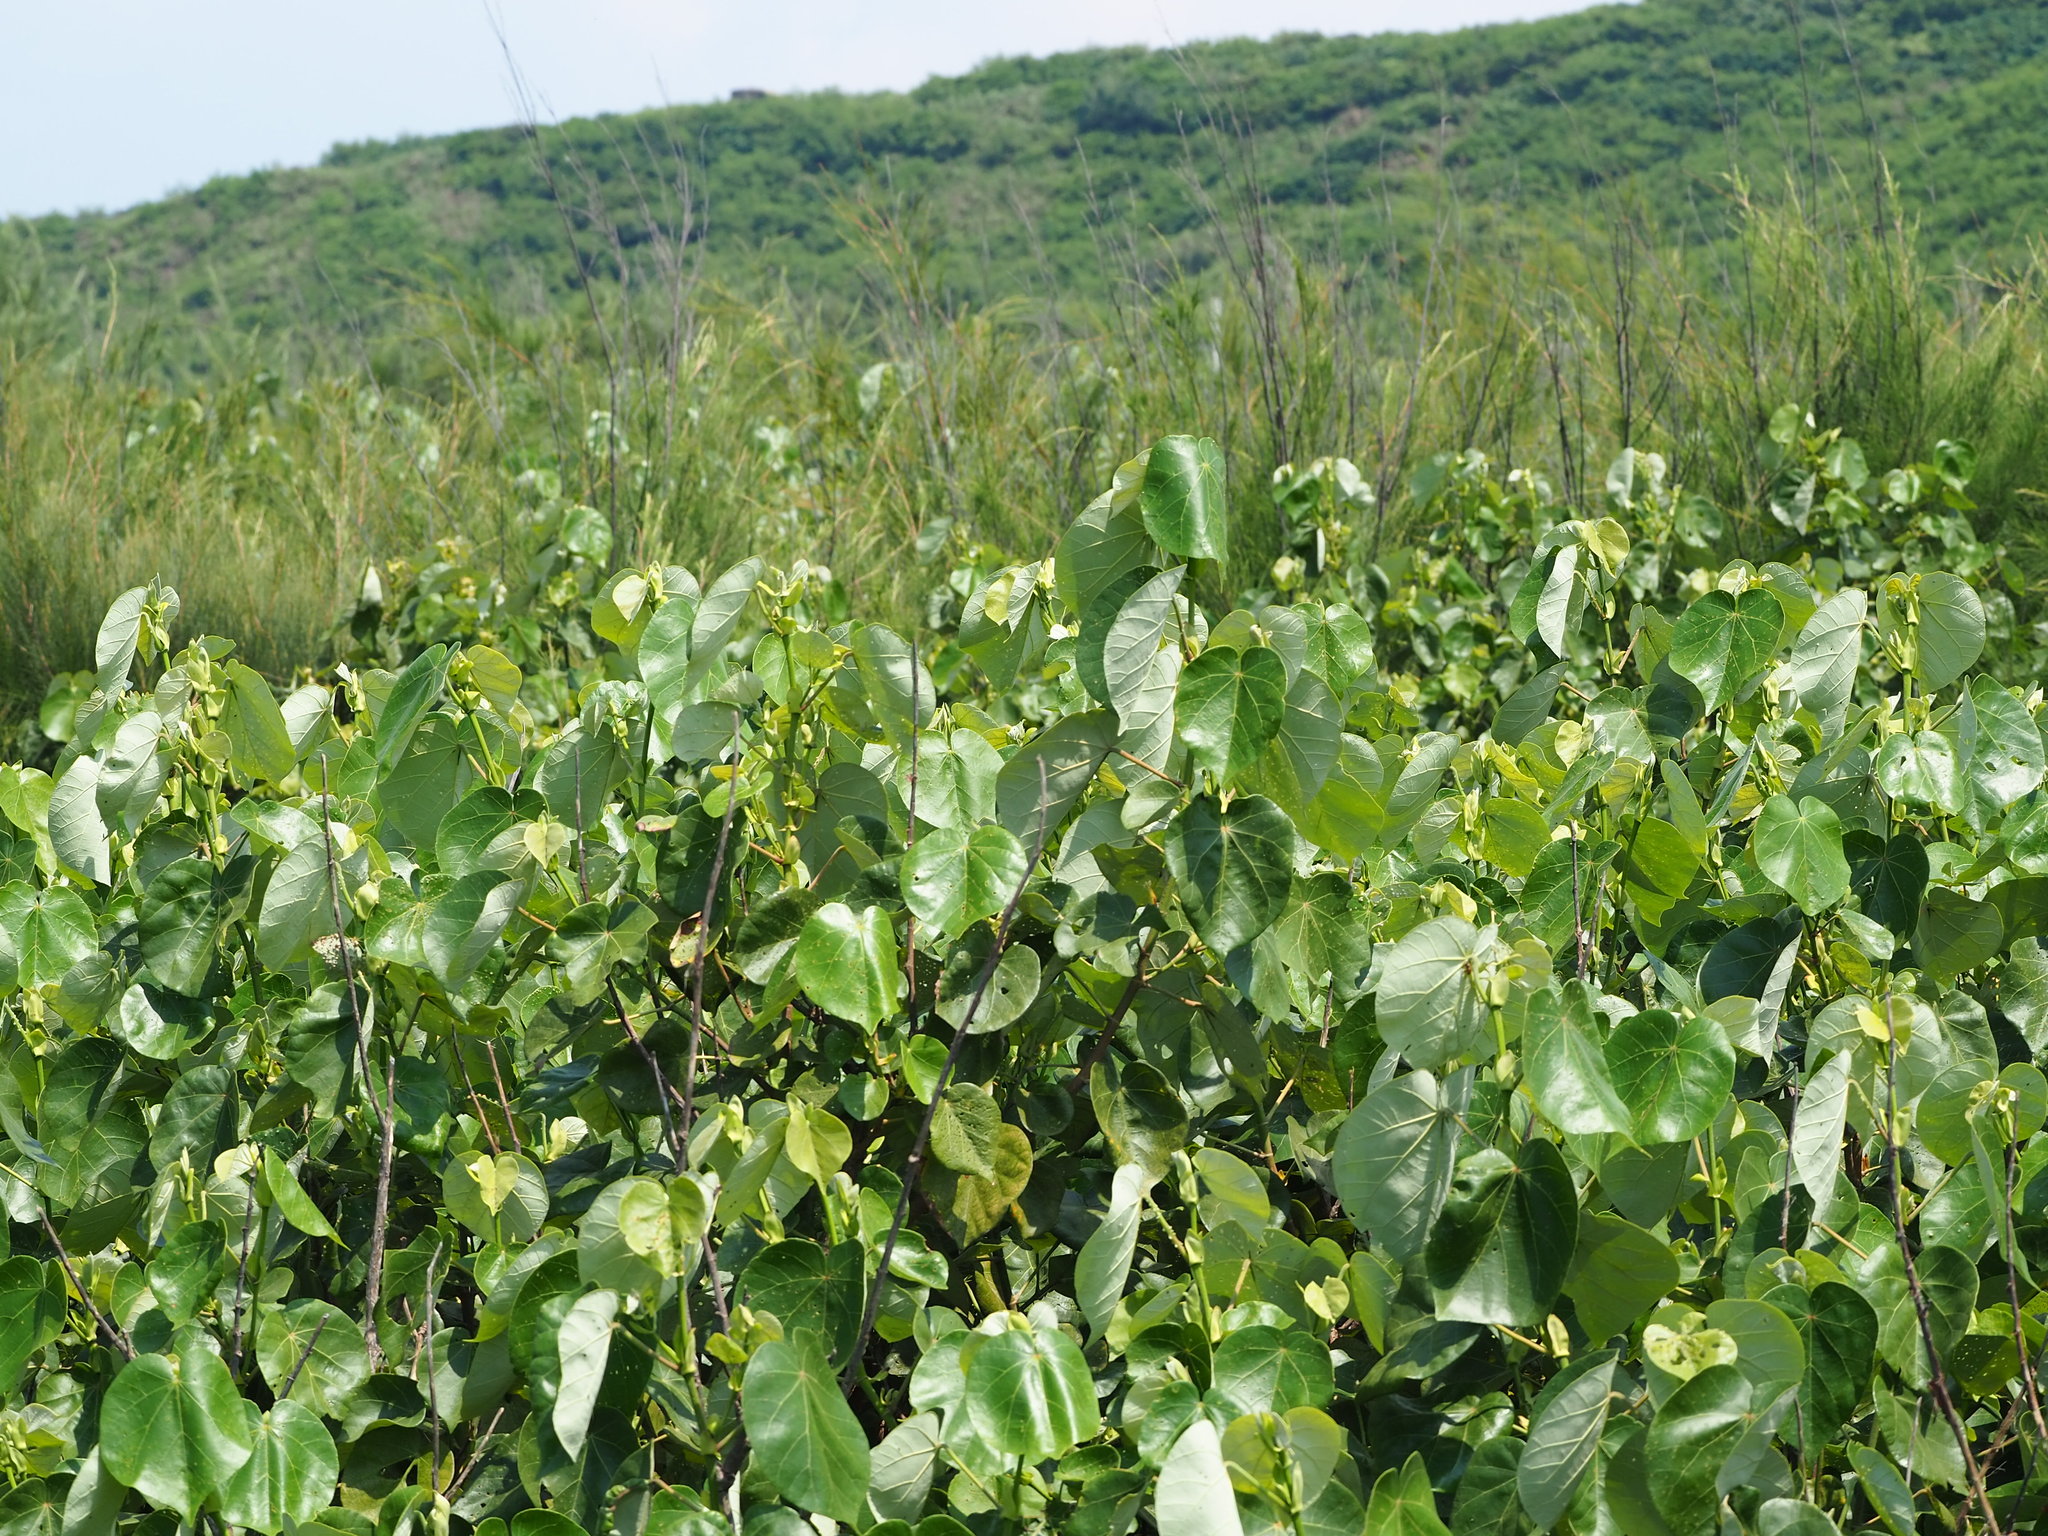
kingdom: Plantae
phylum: Tracheophyta
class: Magnoliopsida
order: Malvales
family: Malvaceae
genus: Talipariti
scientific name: Talipariti tiliaceum
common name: Sea hibiscus
